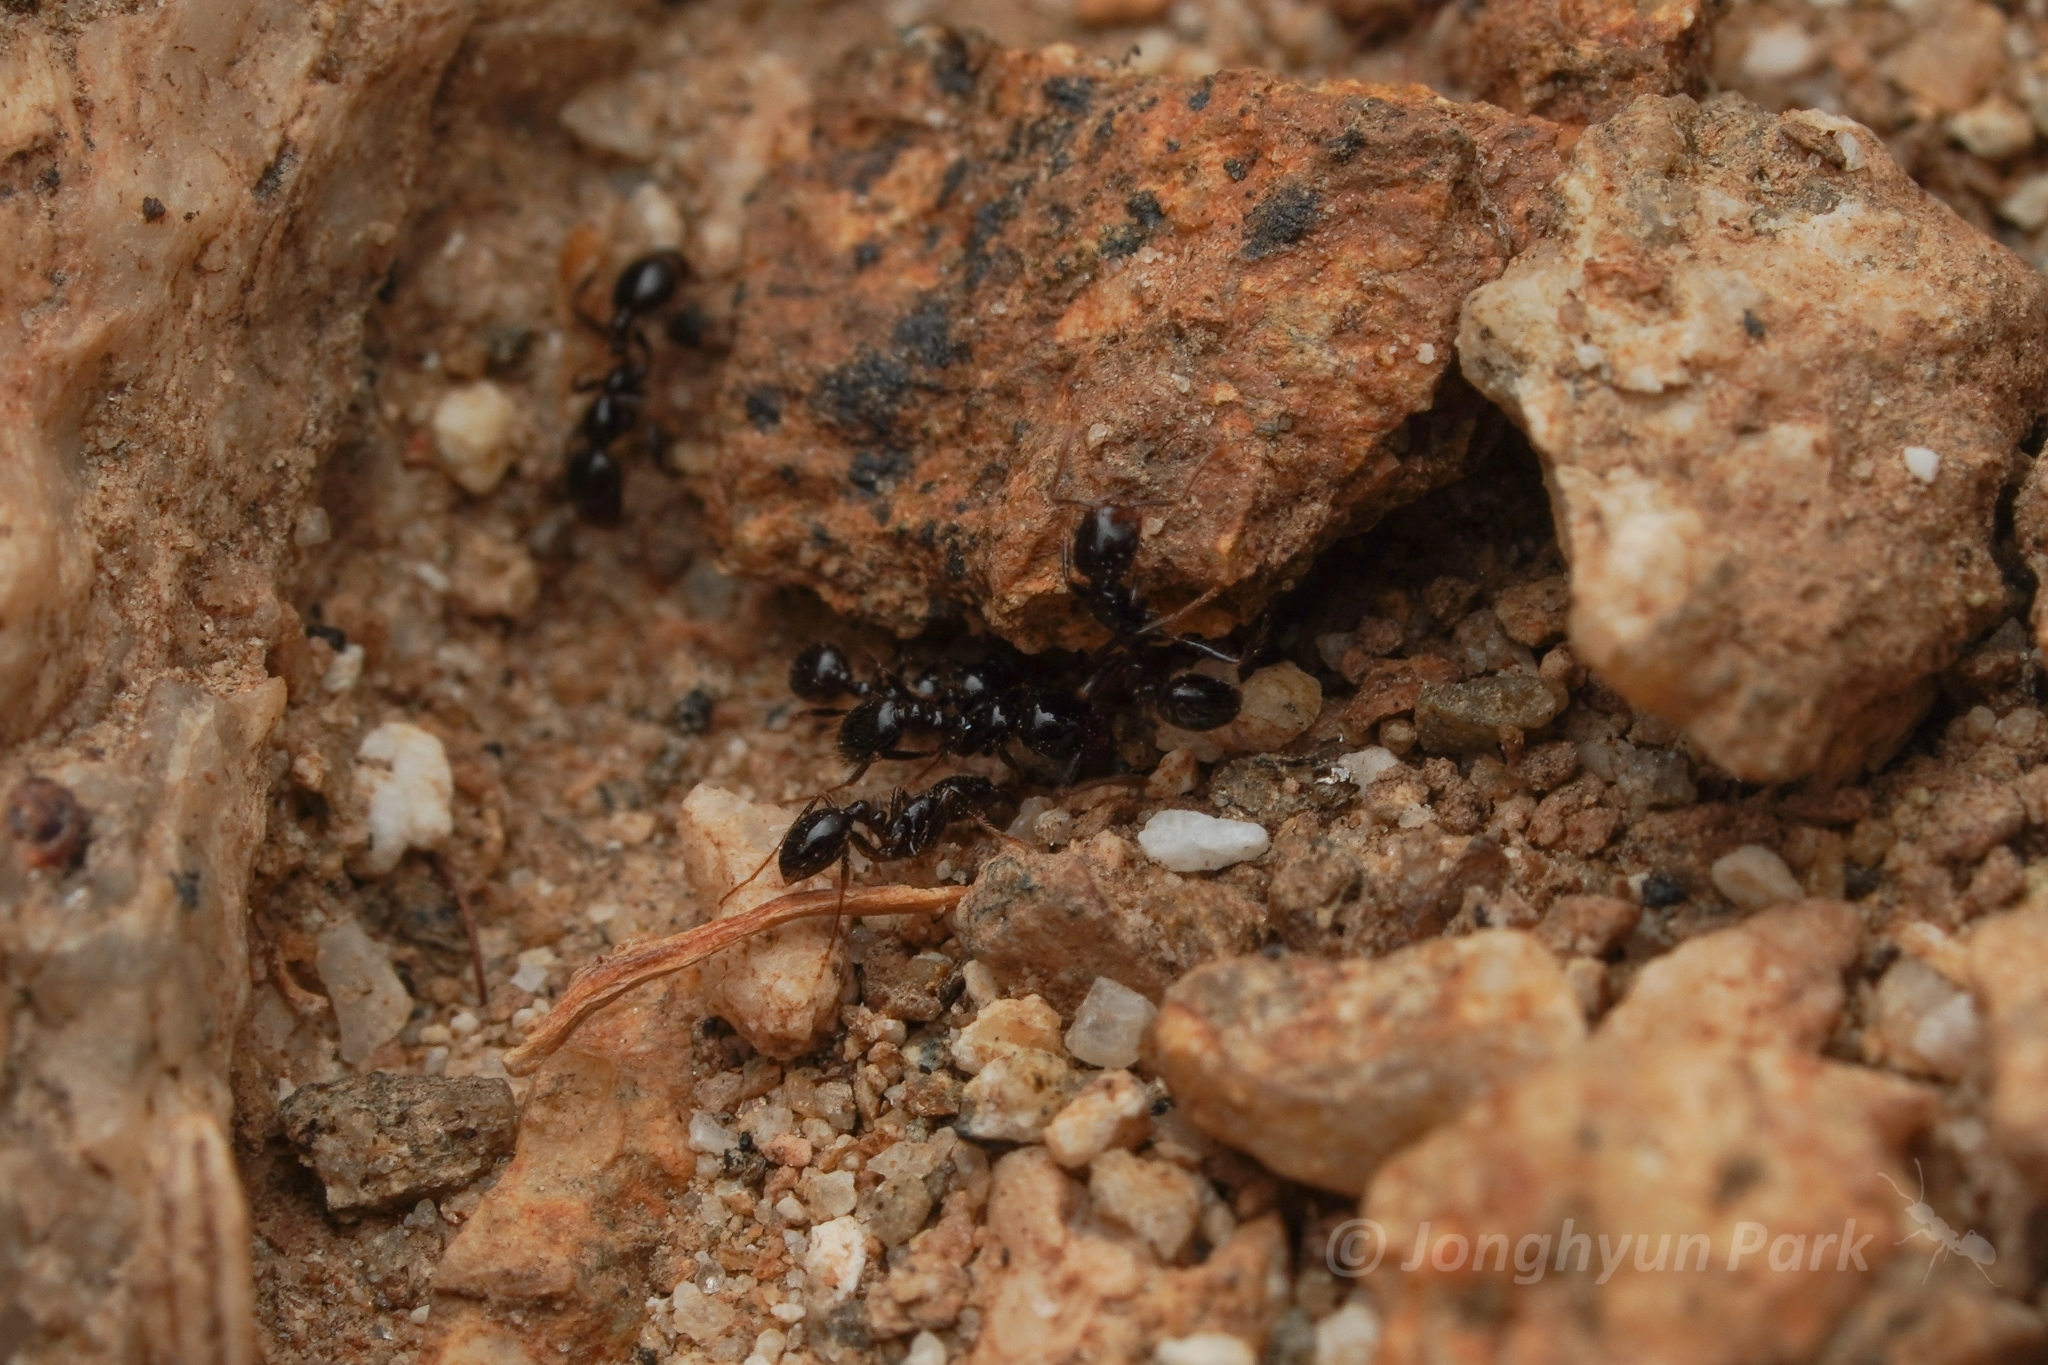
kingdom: Animalia
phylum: Arthropoda
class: Insecta
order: Hymenoptera
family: Formicidae
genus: Solenopsis
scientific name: Solenopsis xyloni
